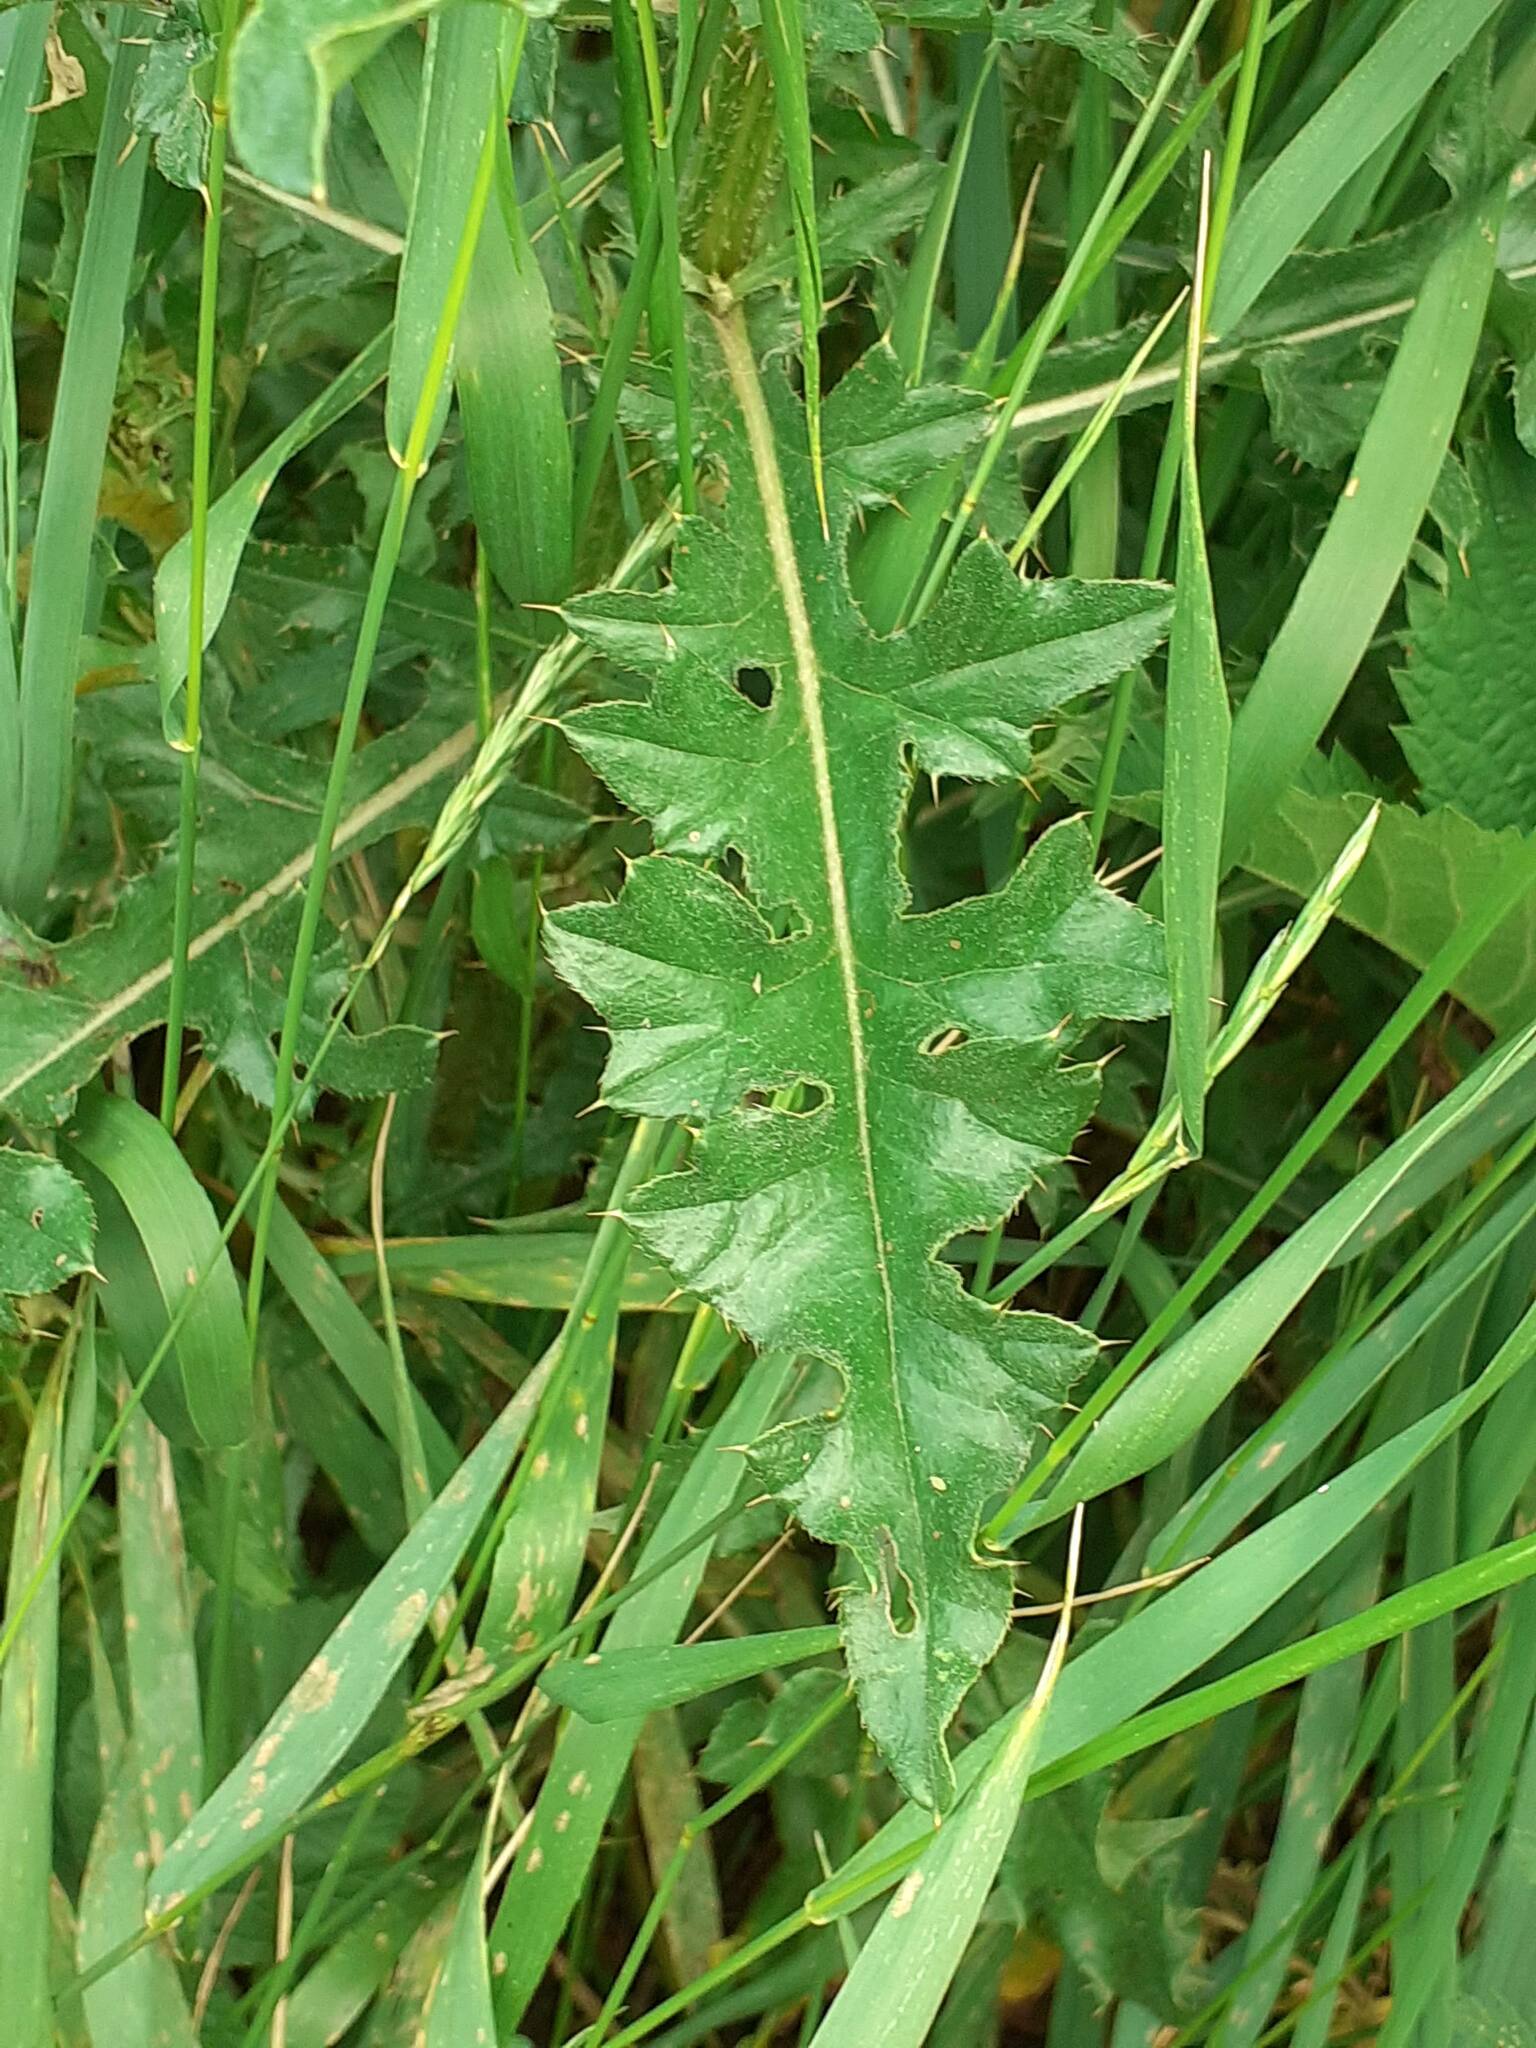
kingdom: Plantae
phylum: Tracheophyta
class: Magnoliopsida
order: Asterales
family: Asteraceae
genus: Cirsium
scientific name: Cirsium arvense
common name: Creeping thistle
